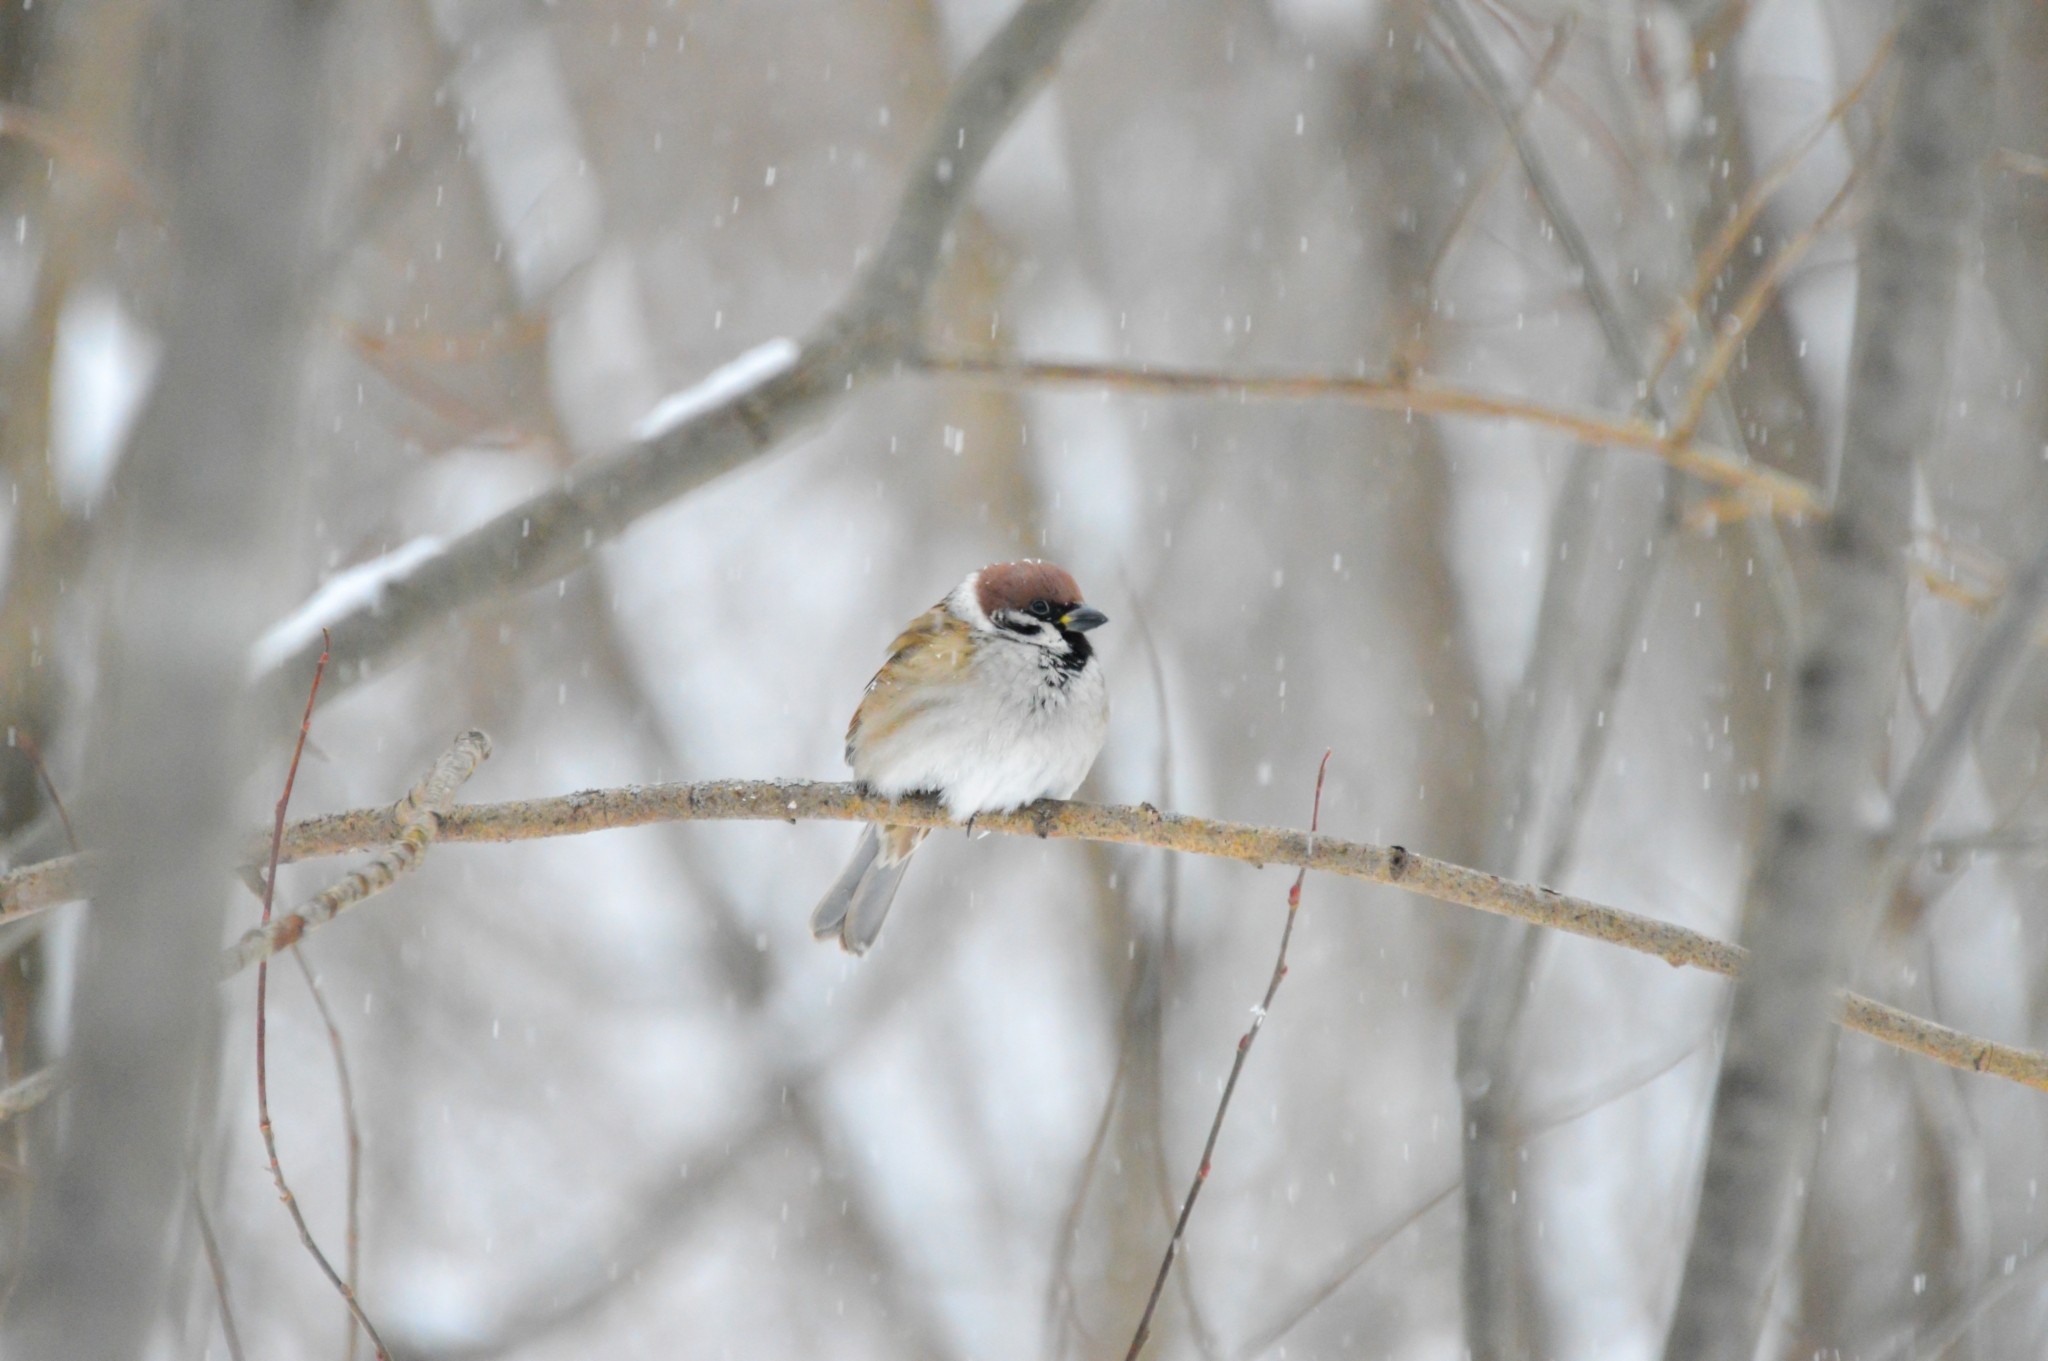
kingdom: Animalia
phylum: Chordata
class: Aves
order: Passeriformes
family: Passeridae
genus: Passer
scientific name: Passer montanus
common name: Eurasian tree sparrow
